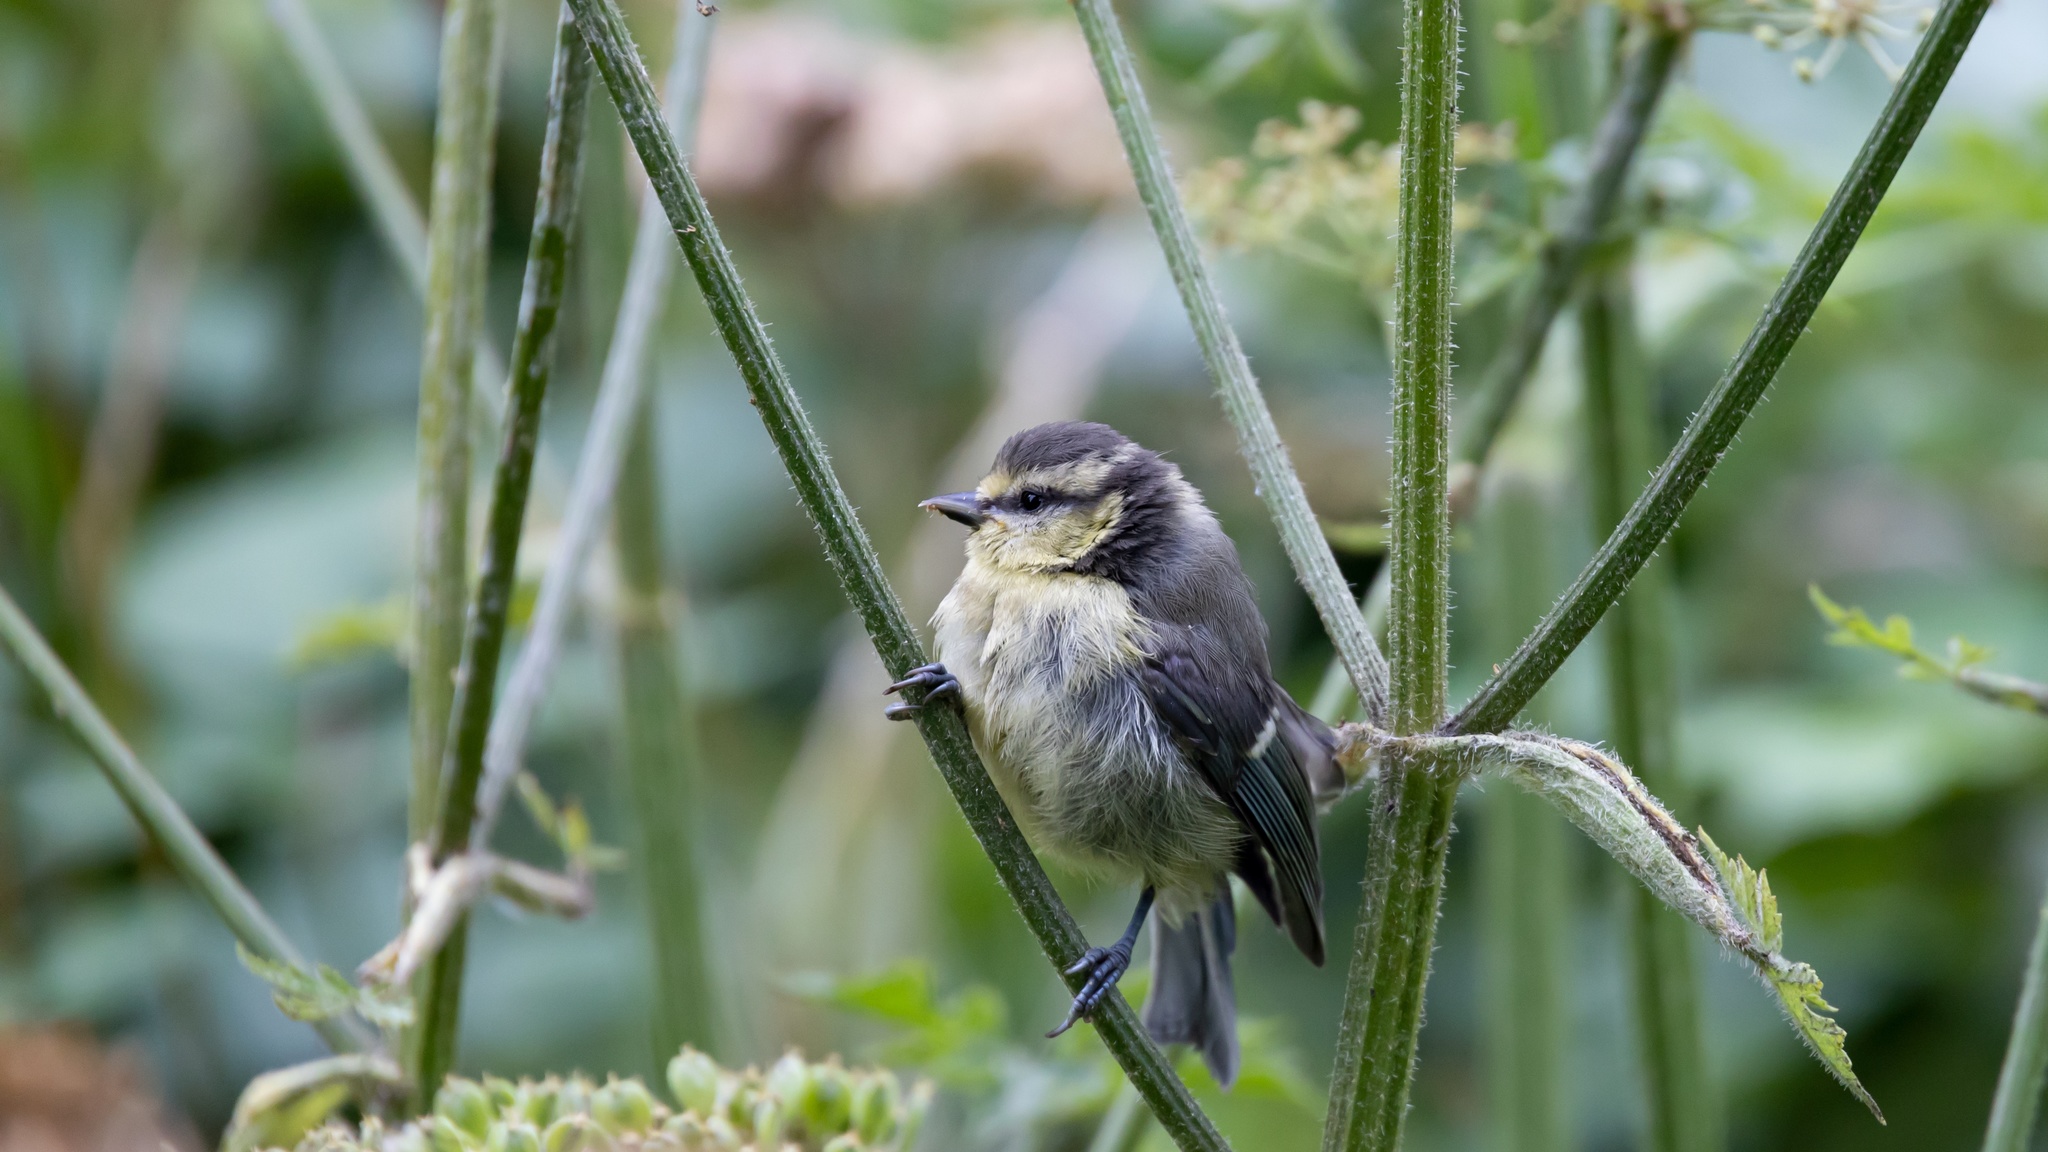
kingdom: Animalia
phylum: Chordata
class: Aves
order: Passeriformes
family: Paridae
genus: Cyanistes
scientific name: Cyanistes caeruleus
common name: Eurasian blue tit
